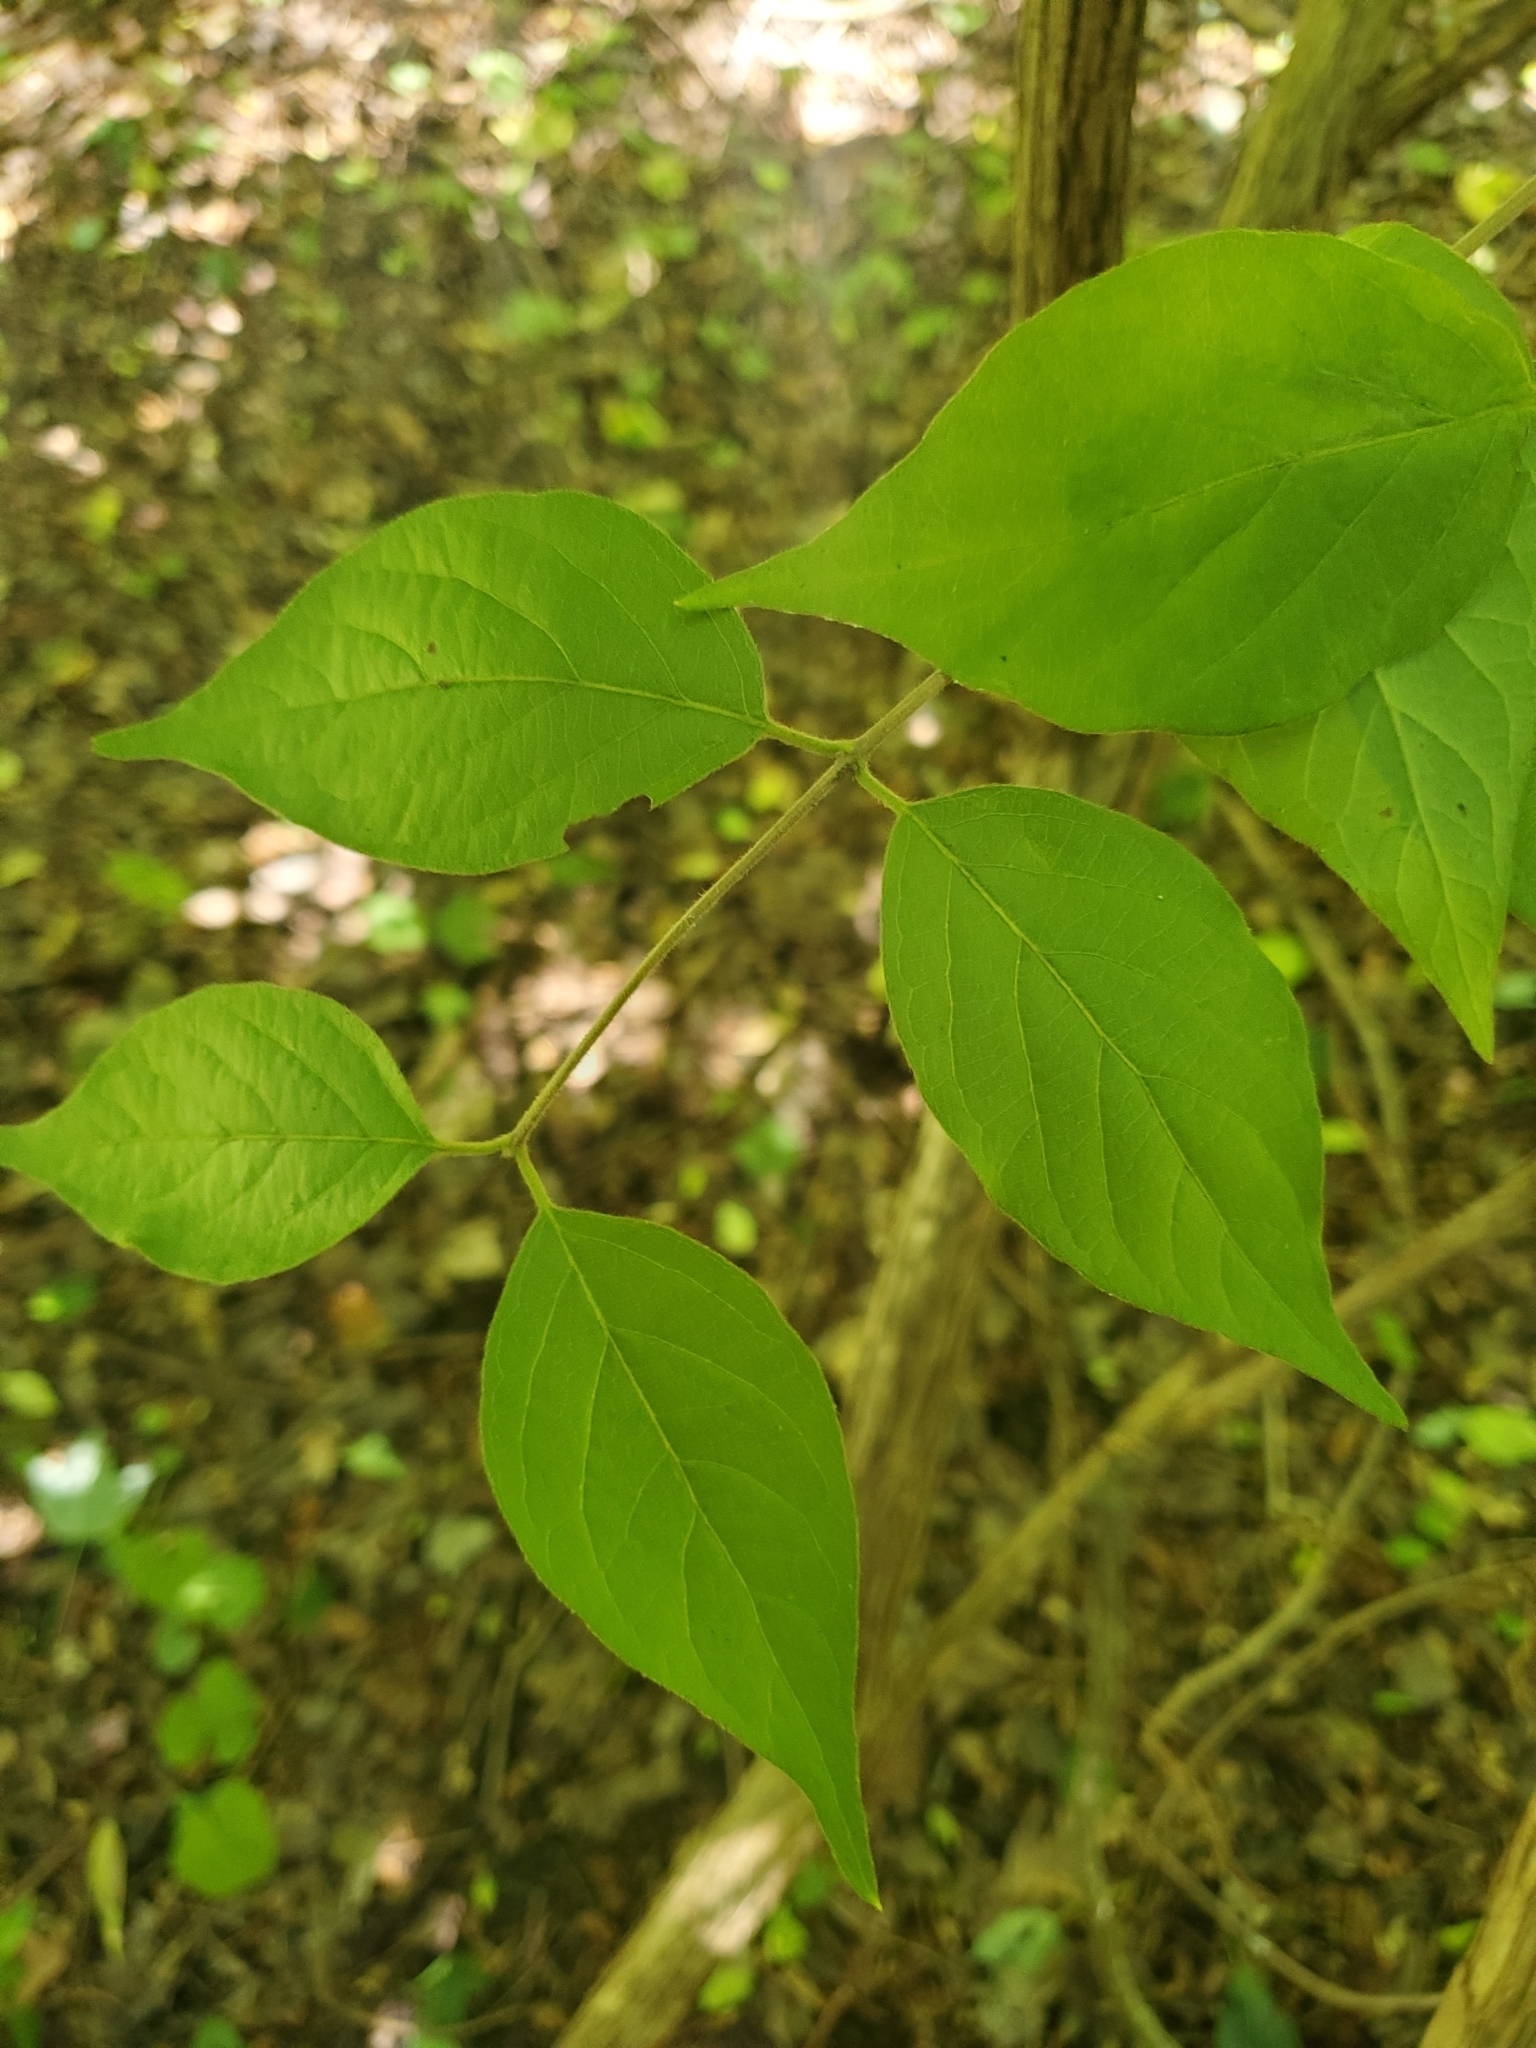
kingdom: Plantae
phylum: Tracheophyta
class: Magnoliopsida
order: Dipsacales
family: Caprifoliaceae
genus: Lonicera
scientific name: Lonicera maackii
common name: Amur honeysuckle
